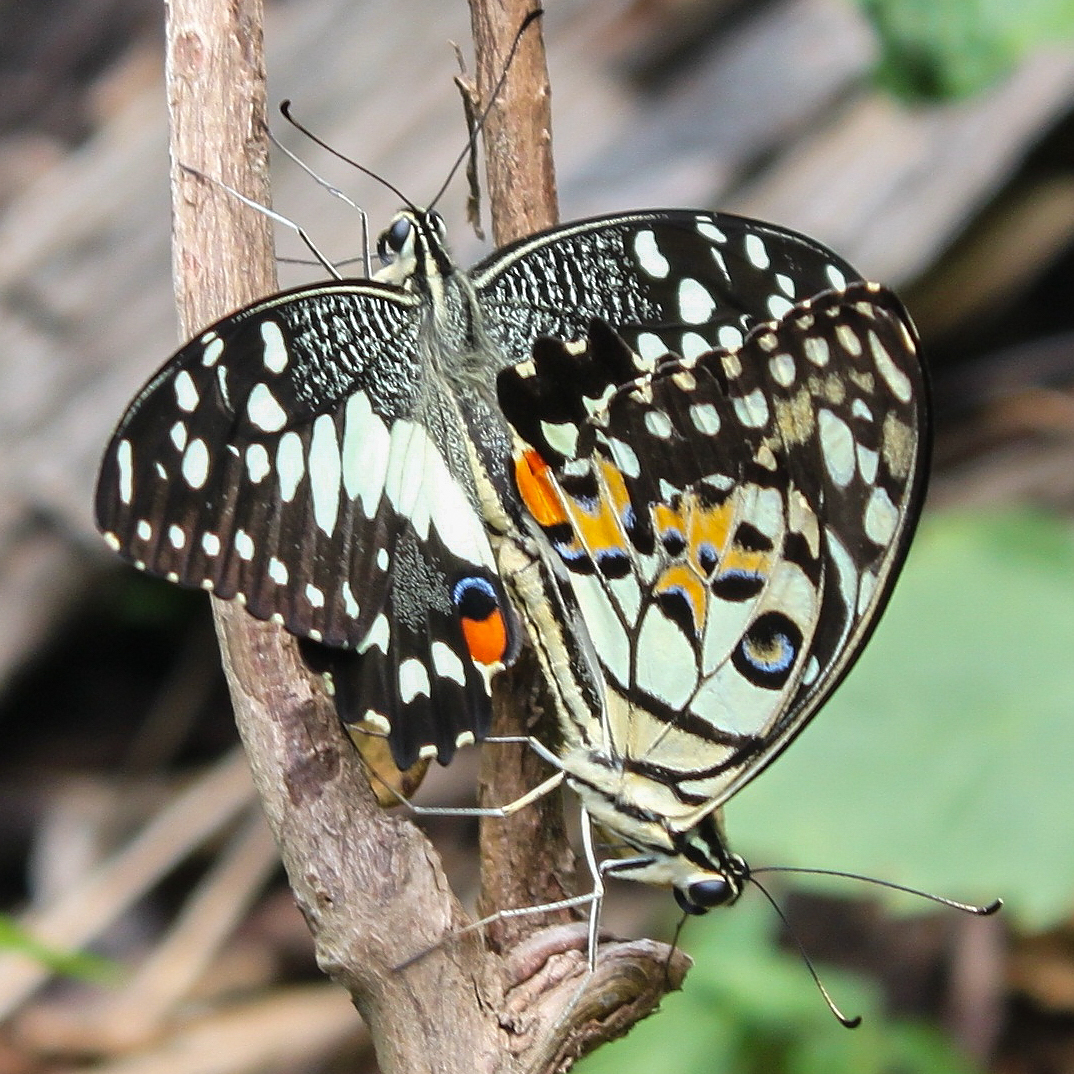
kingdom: Animalia
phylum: Arthropoda
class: Insecta
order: Lepidoptera
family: Papilionidae
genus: Papilio
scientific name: Papilio demoleus
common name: Lime butterfly
